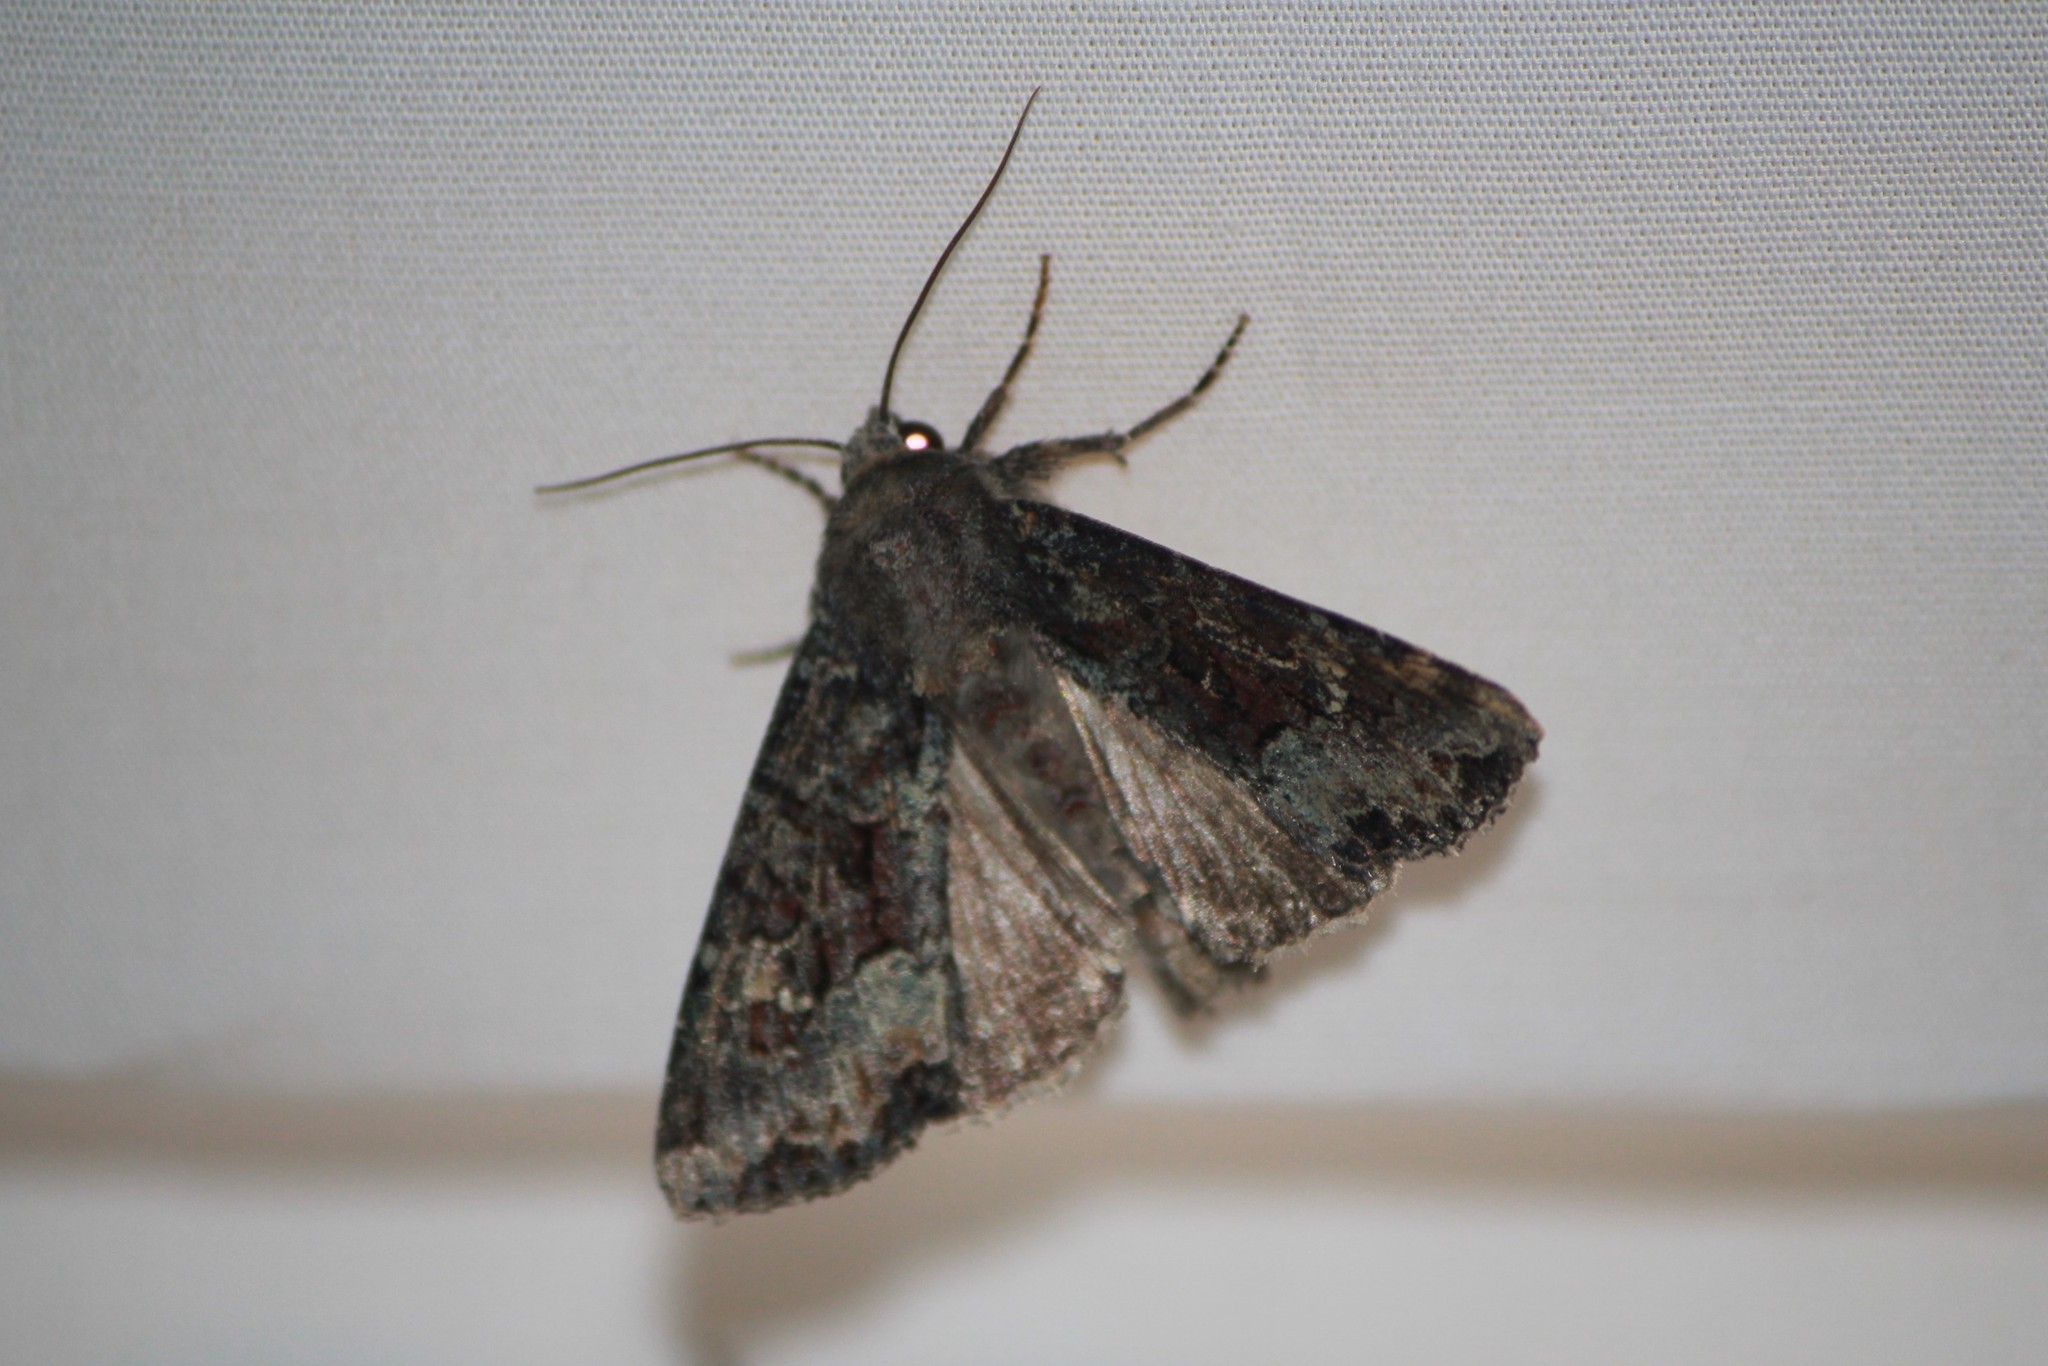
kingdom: Animalia
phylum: Arthropoda
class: Insecta
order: Lepidoptera
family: Noctuidae
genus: Apamea
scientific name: Apamea amputatrix
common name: Yellow-headed cutworm moth
